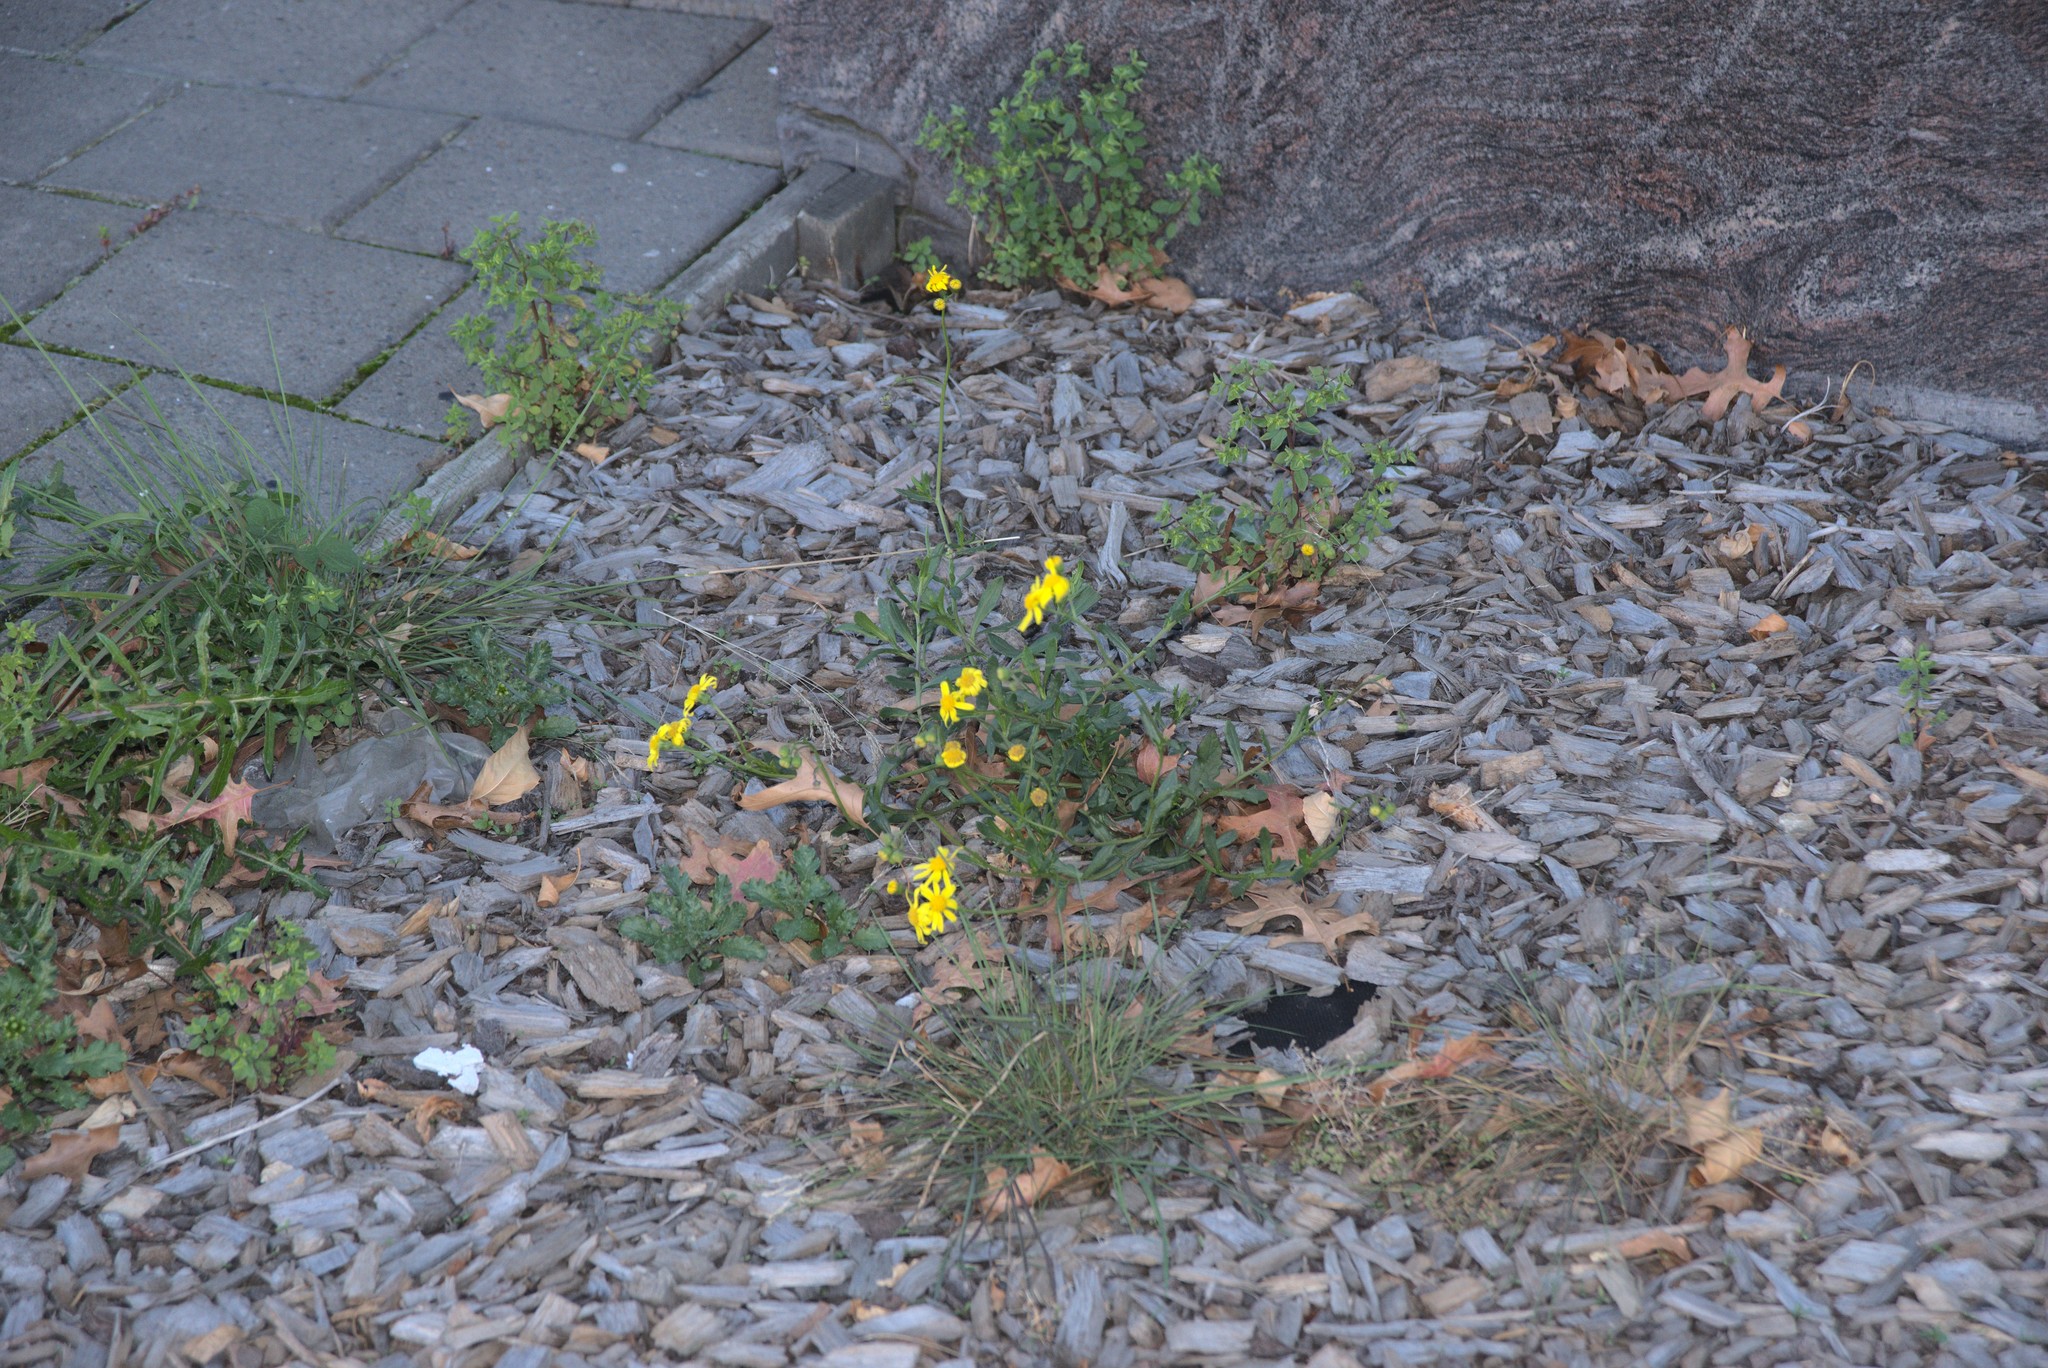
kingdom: Plantae
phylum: Tracheophyta
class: Magnoliopsida
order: Asterales
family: Asteraceae
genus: Senecio
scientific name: Senecio skirrhodon
